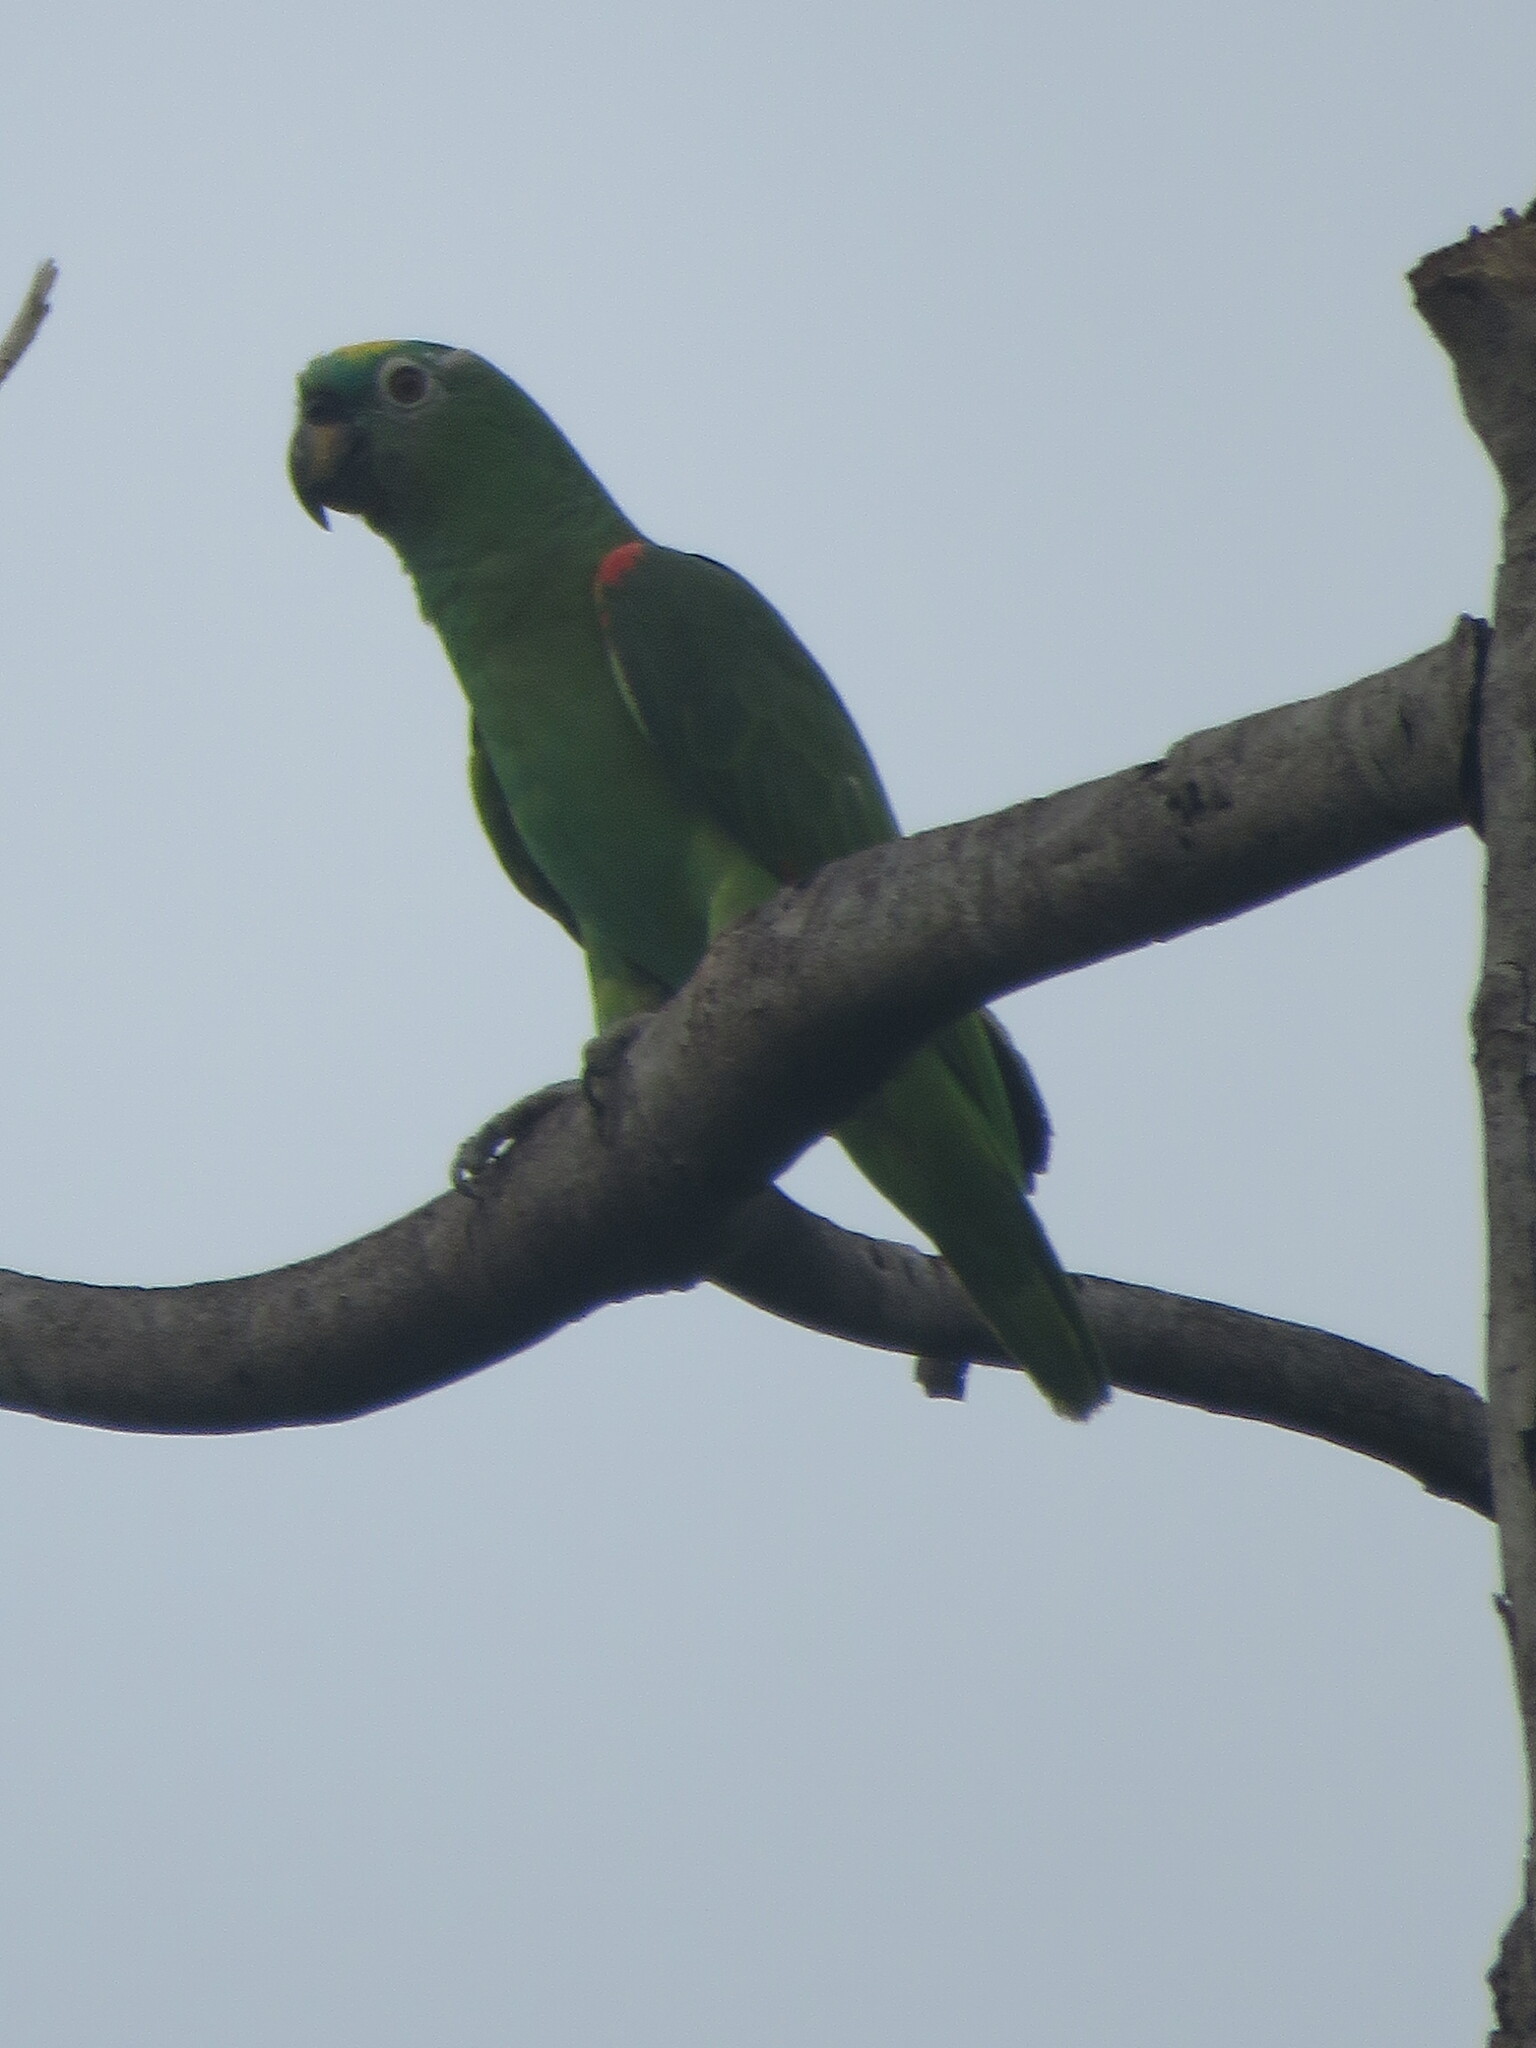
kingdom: Animalia
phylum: Chordata
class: Aves
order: Psittaciformes
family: Psittacidae
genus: Amazona
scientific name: Amazona ochrocephala
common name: Yellow-crowned amazon
